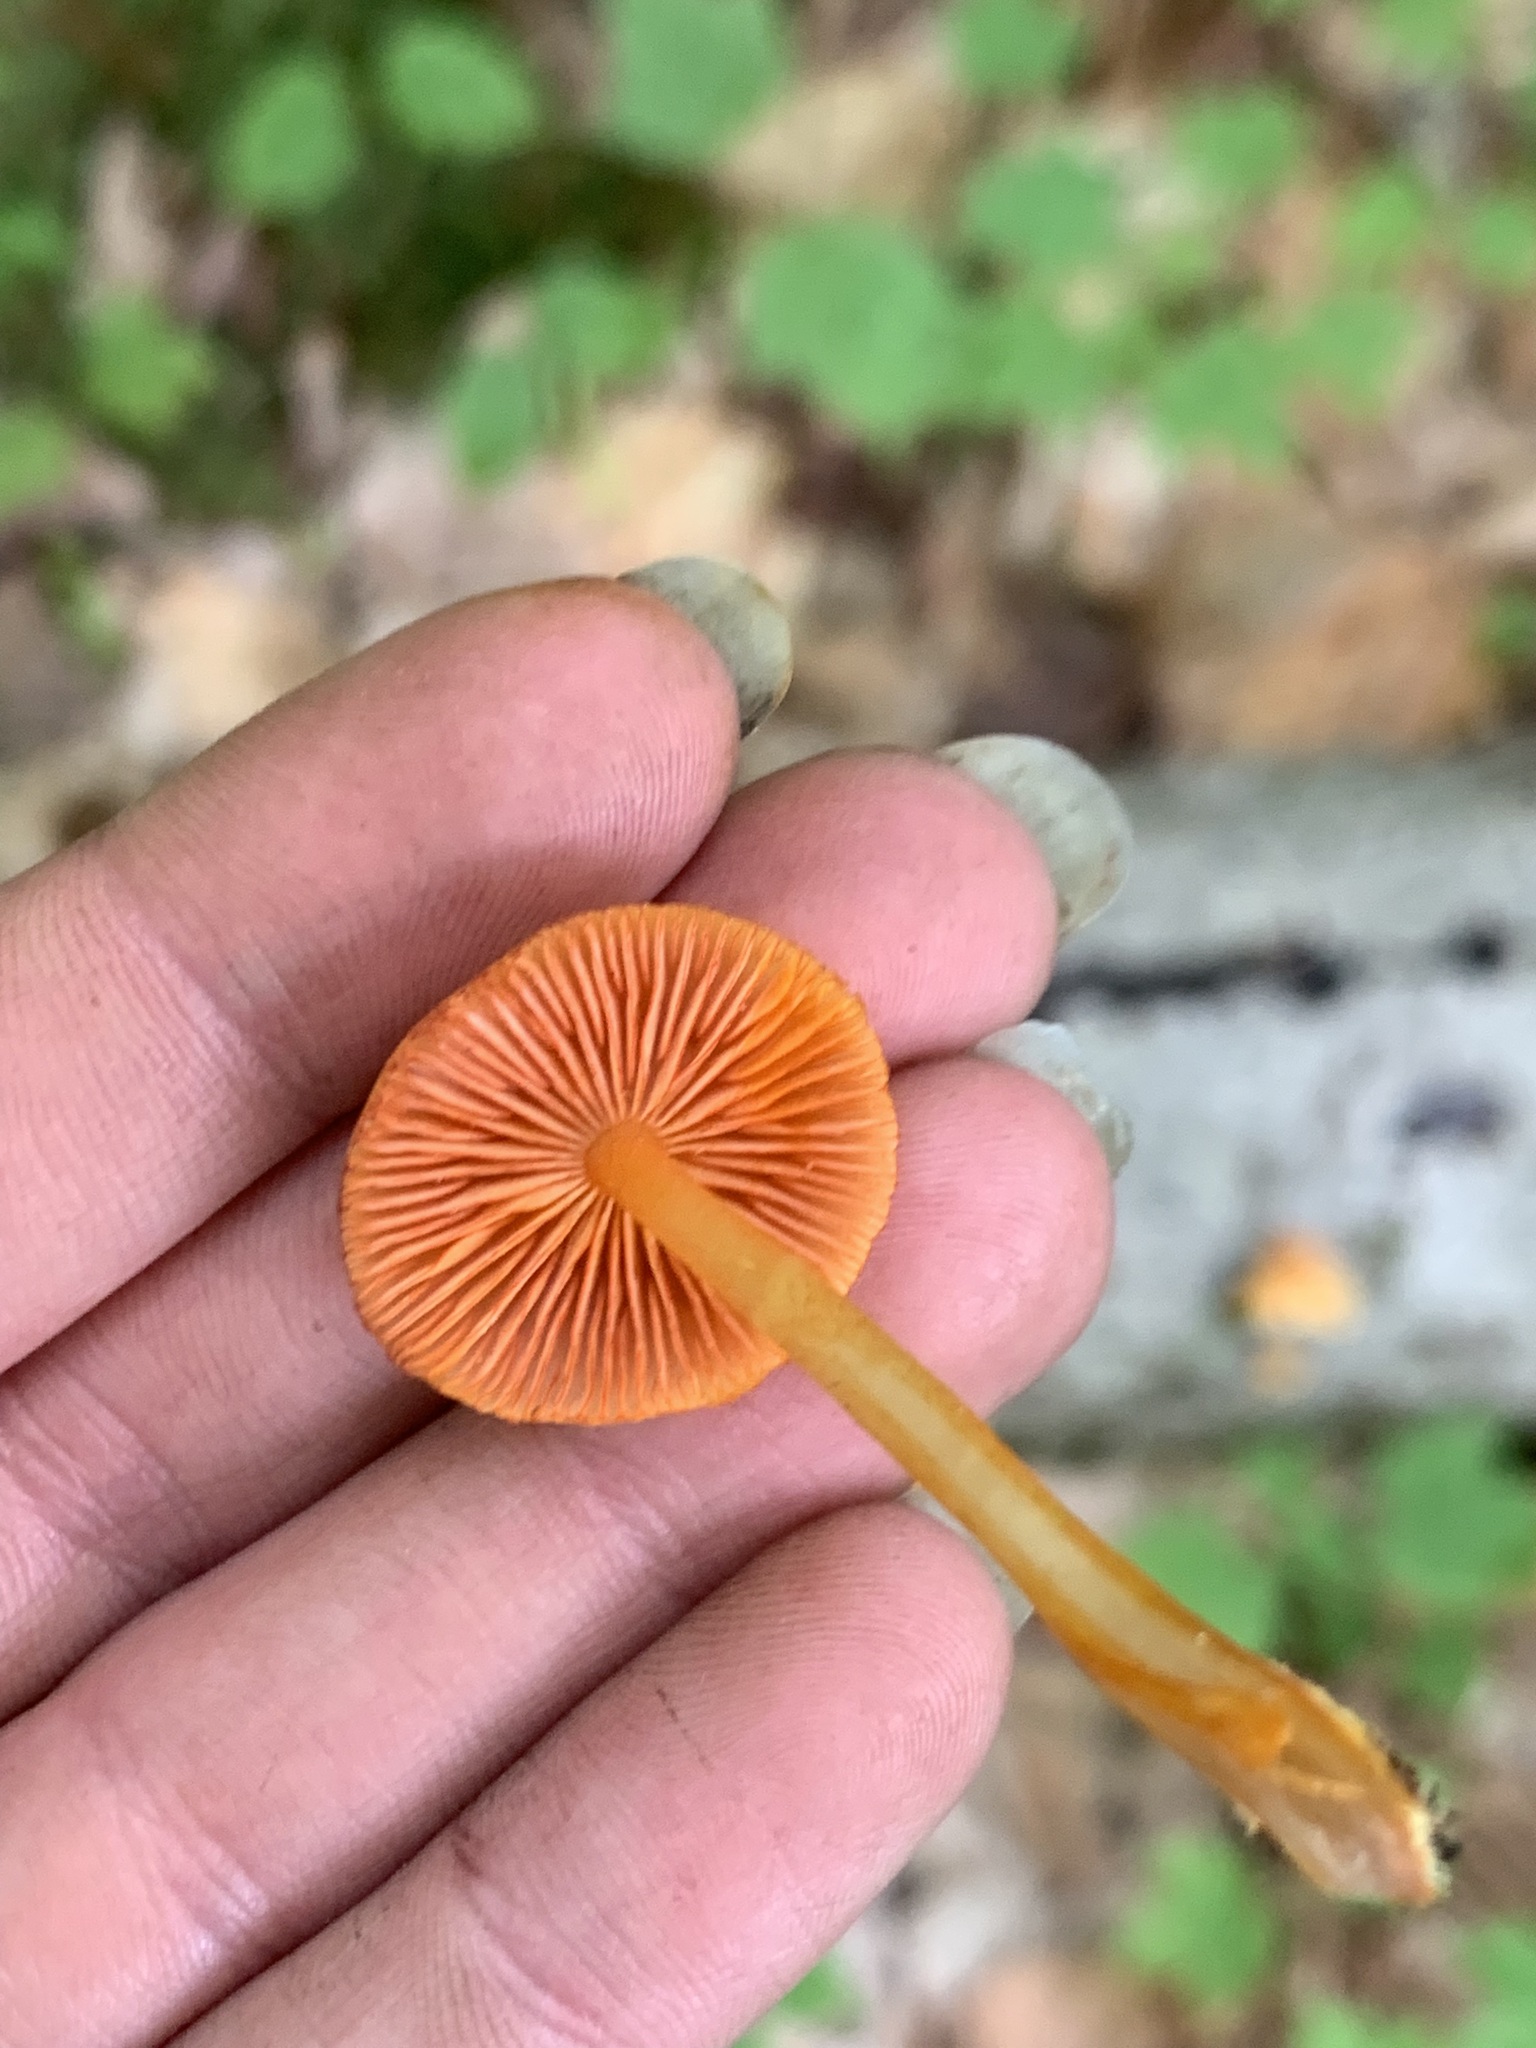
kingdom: Fungi
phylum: Basidiomycota
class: Agaricomycetes
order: Agaricales
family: Mycenaceae
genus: Mycena
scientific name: Mycena leaiana
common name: Orange mycena
